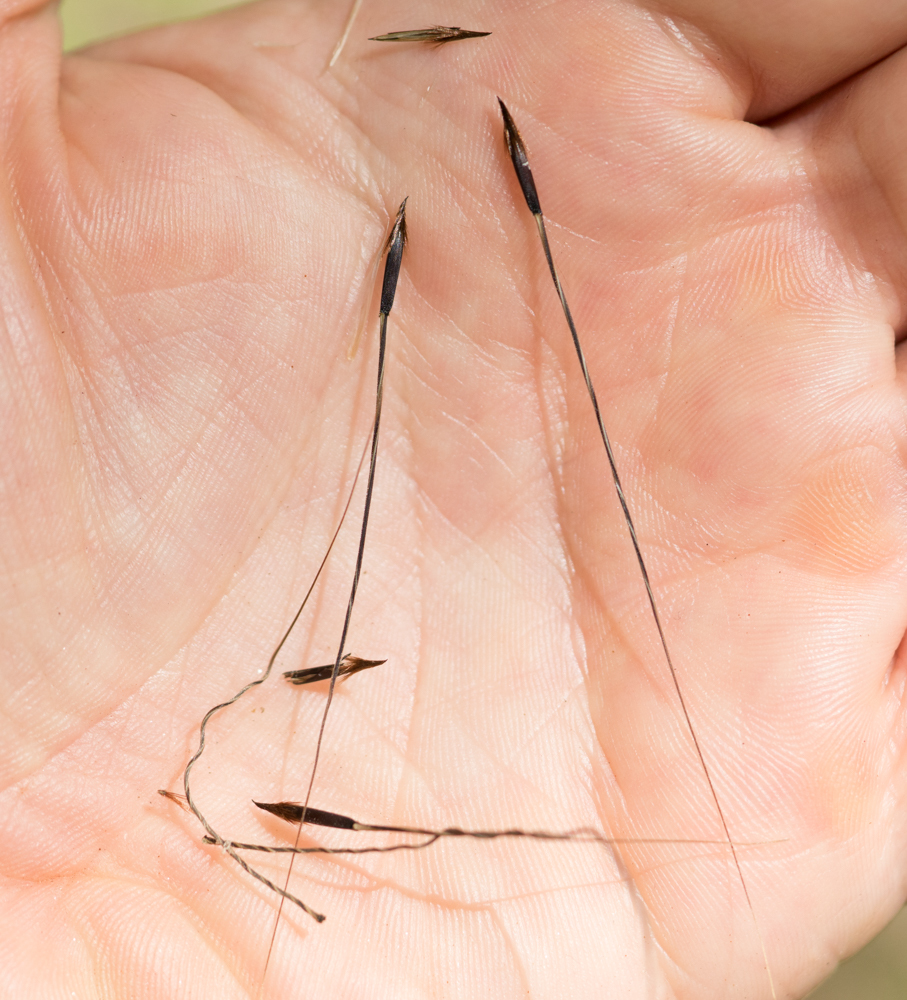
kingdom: Plantae
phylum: Tracheophyta
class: Liliopsida
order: Poales
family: Poaceae
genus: Piptochaetium
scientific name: Piptochaetium avenaceum
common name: Black bunchgrass
